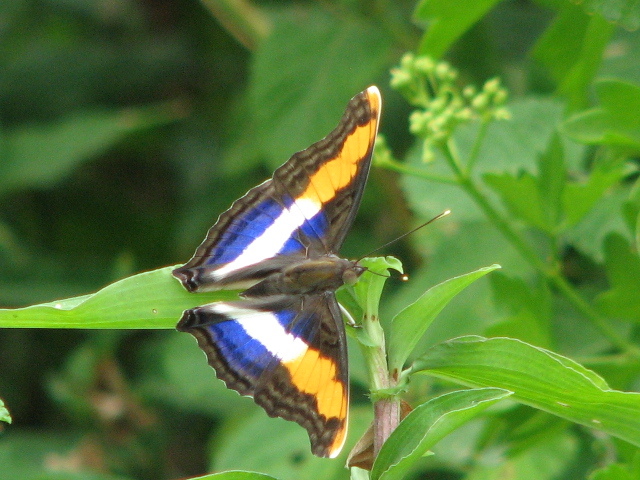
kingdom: Animalia
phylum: Arthropoda
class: Insecta
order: Lepidoptera
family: Nymphalidae
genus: Doxocopa
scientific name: Doxocopa laure
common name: Silver emperor
